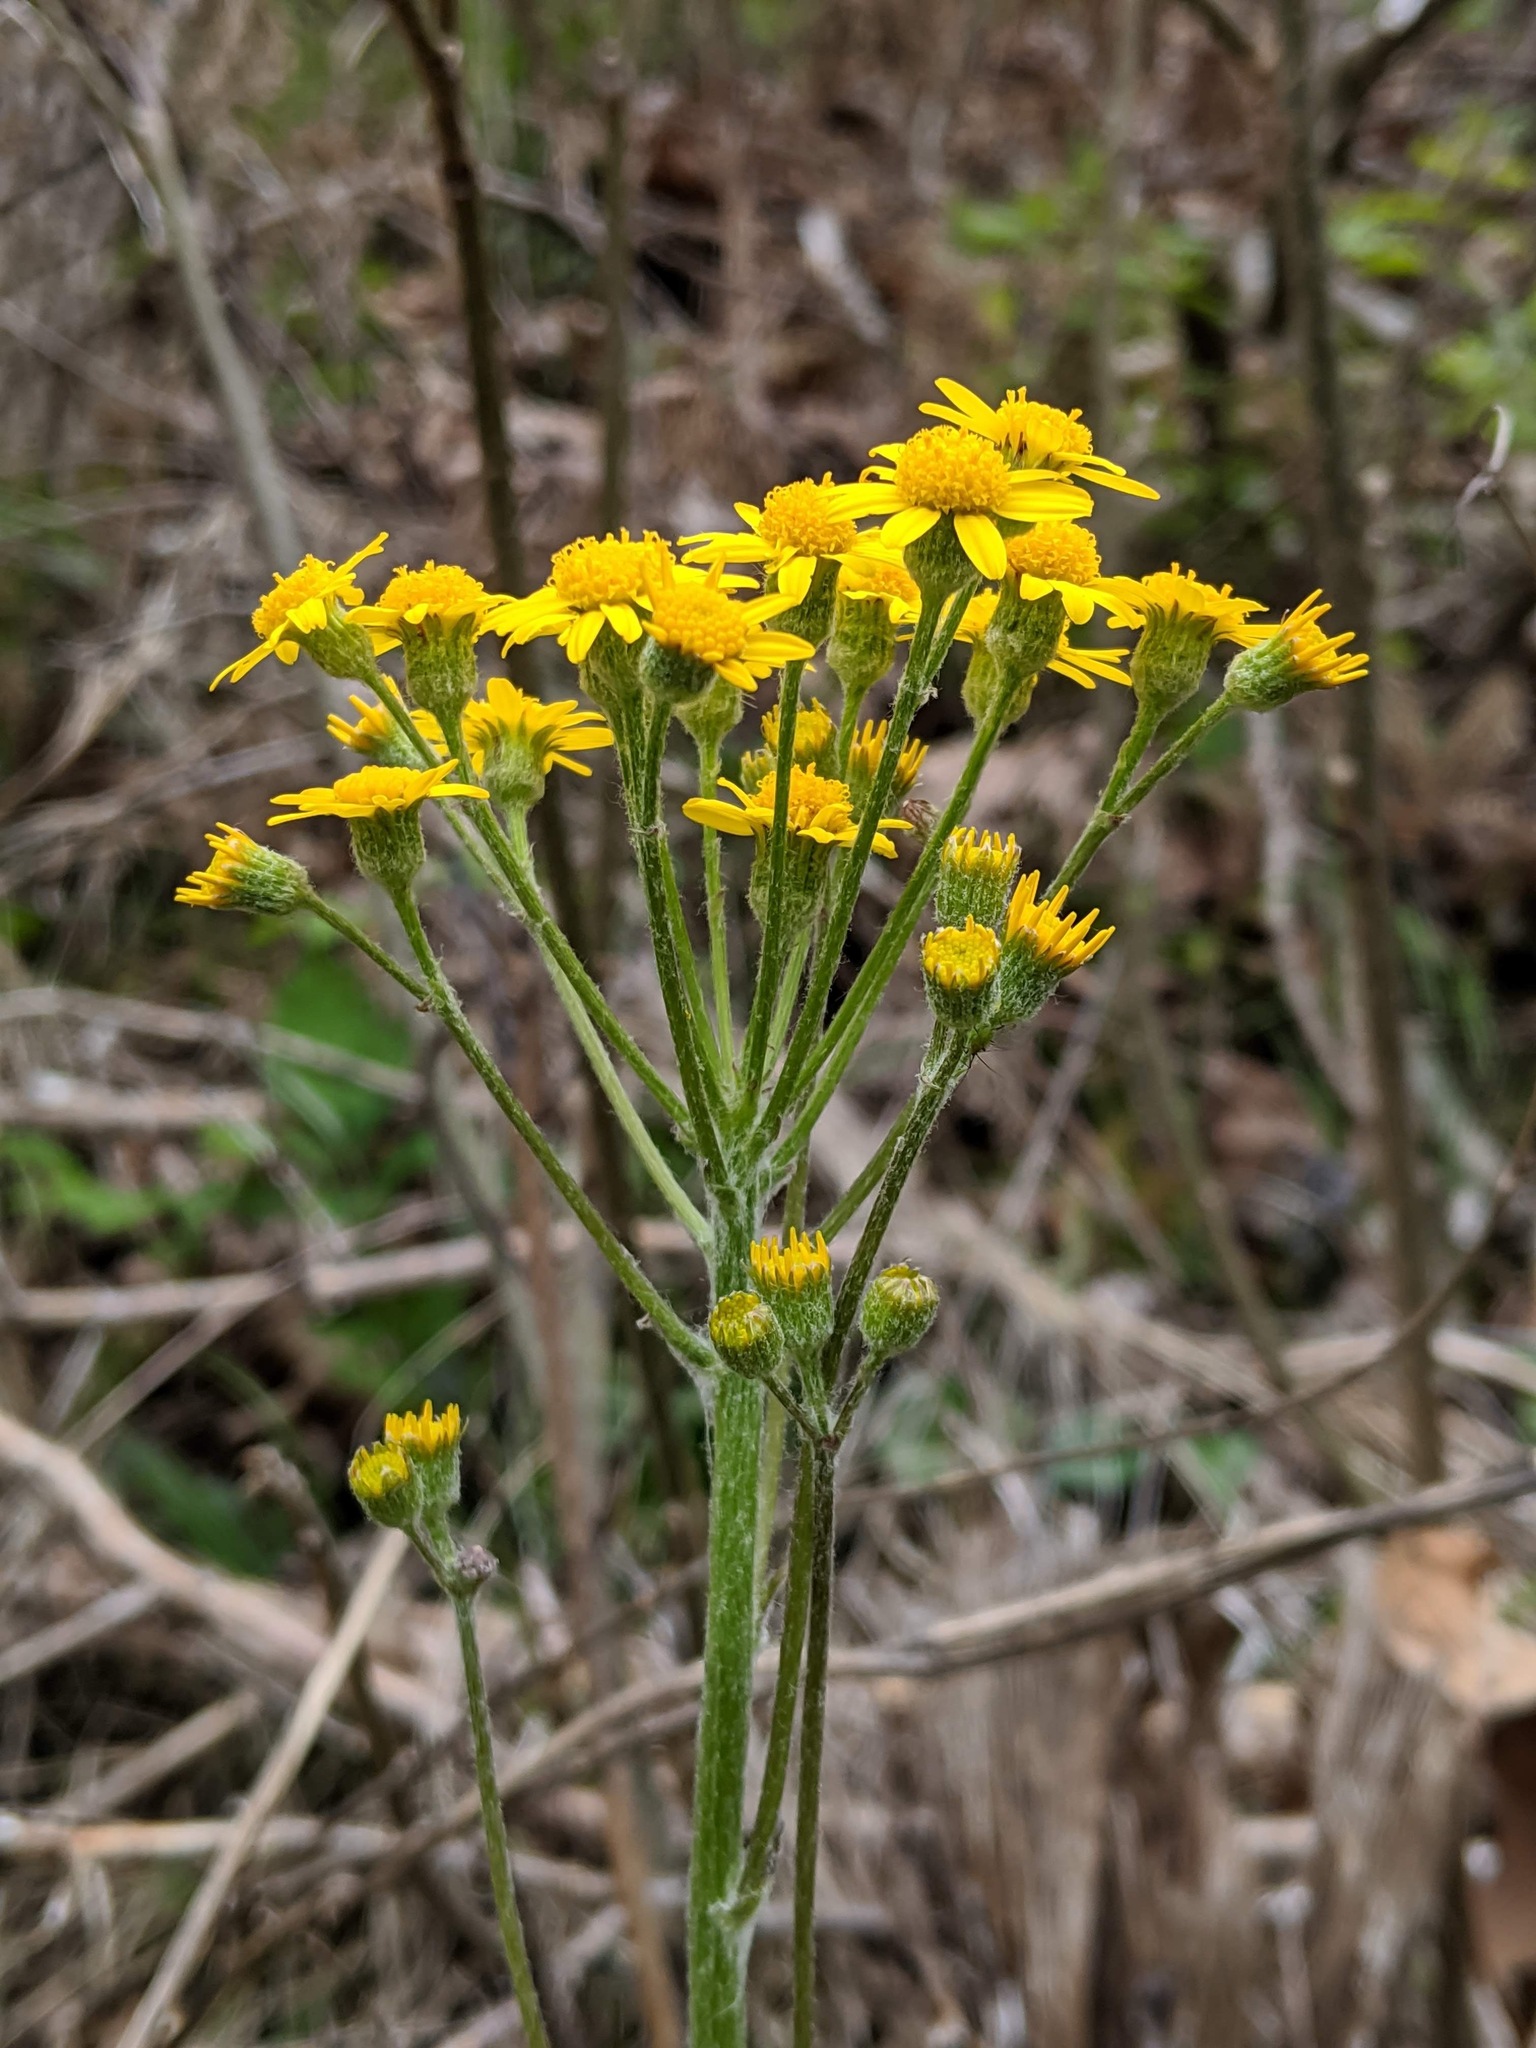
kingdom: Plantae
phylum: Tracheophyta
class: Magnoliopsida
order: Asterales
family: Asteraceae
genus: Packera
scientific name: Packera plattensis
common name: Prairie groundsel
